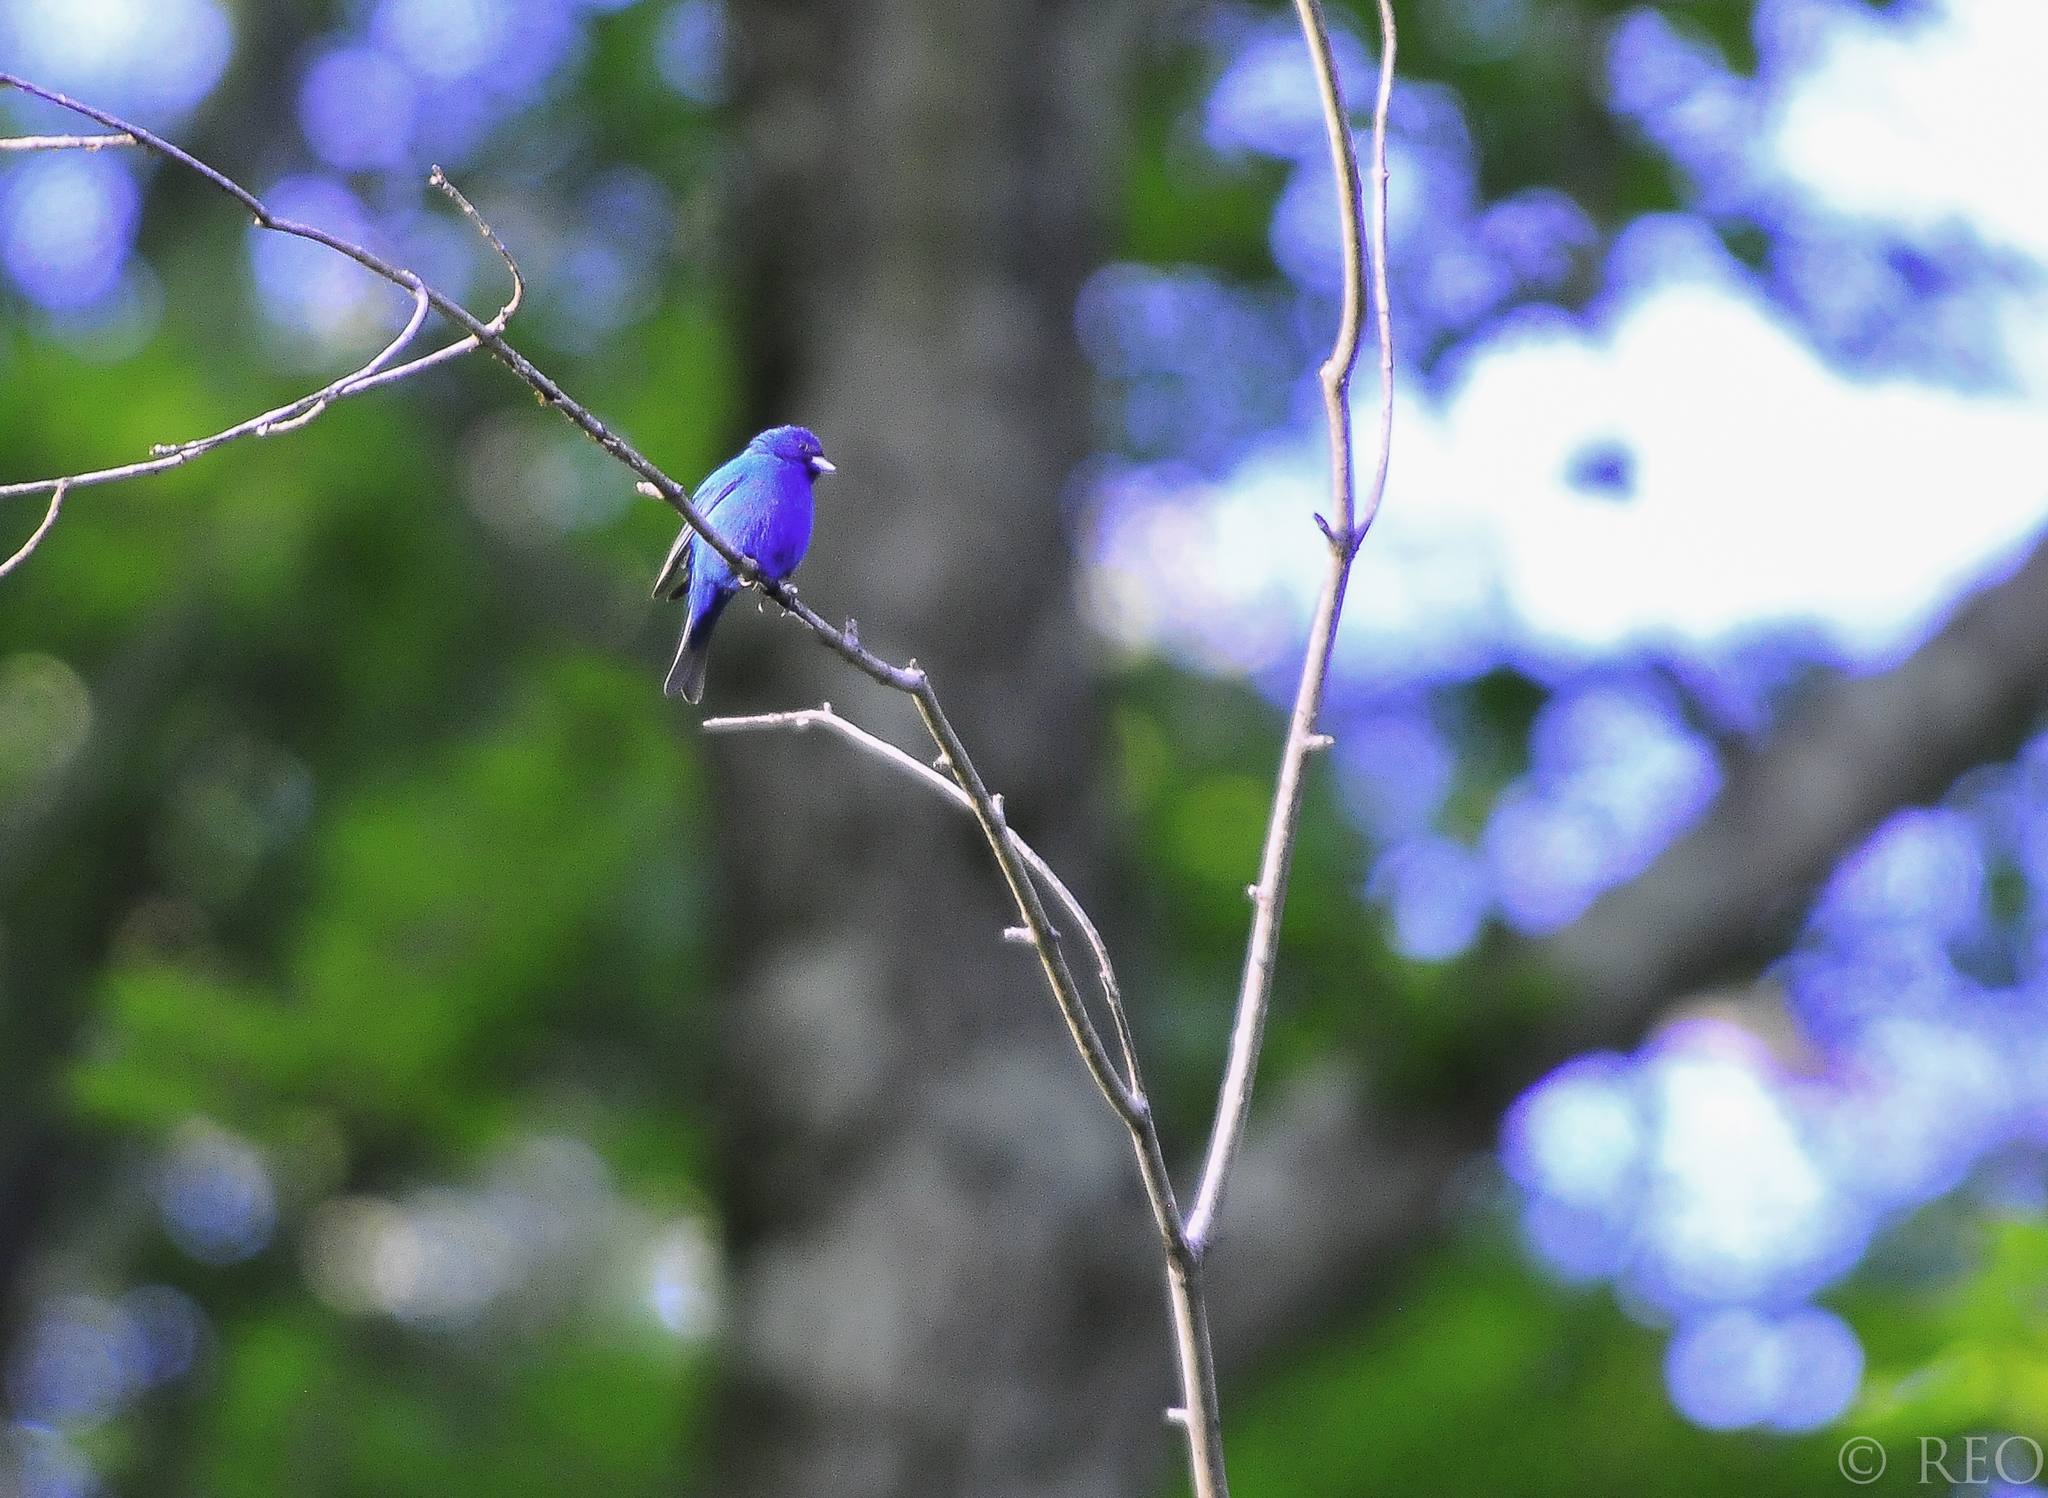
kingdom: Animalia
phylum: Chordata
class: Aves
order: Passeriformes
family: Cardinalidae
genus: Passerina
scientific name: Passerina cyanea
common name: Indigo bunting
